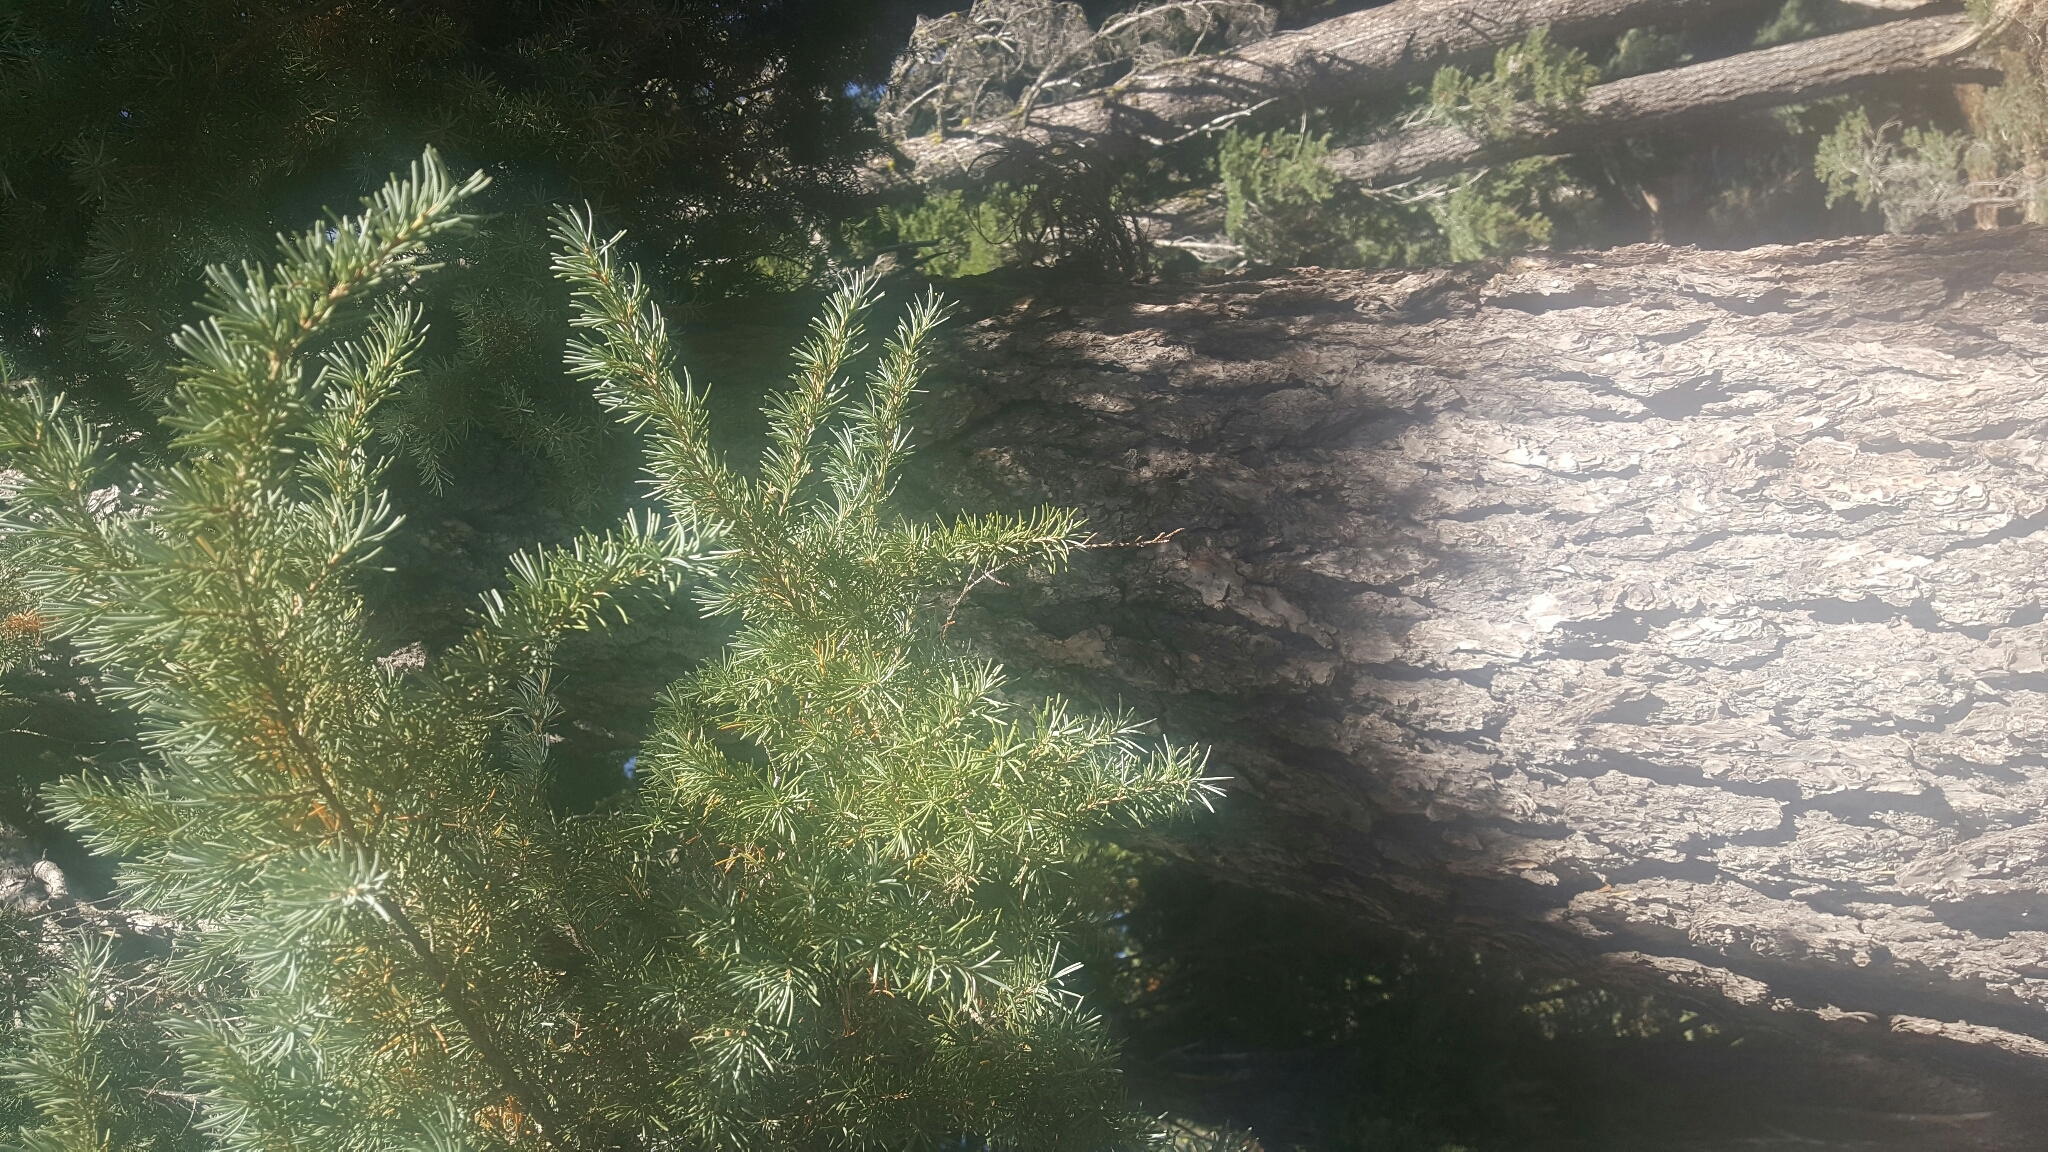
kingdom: Plantae
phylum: Tracheophyta
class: Pinopsida
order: Pinales
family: Pinaceae
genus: Tsuga
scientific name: Tsuga mertensiana
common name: Mountain hemlock
